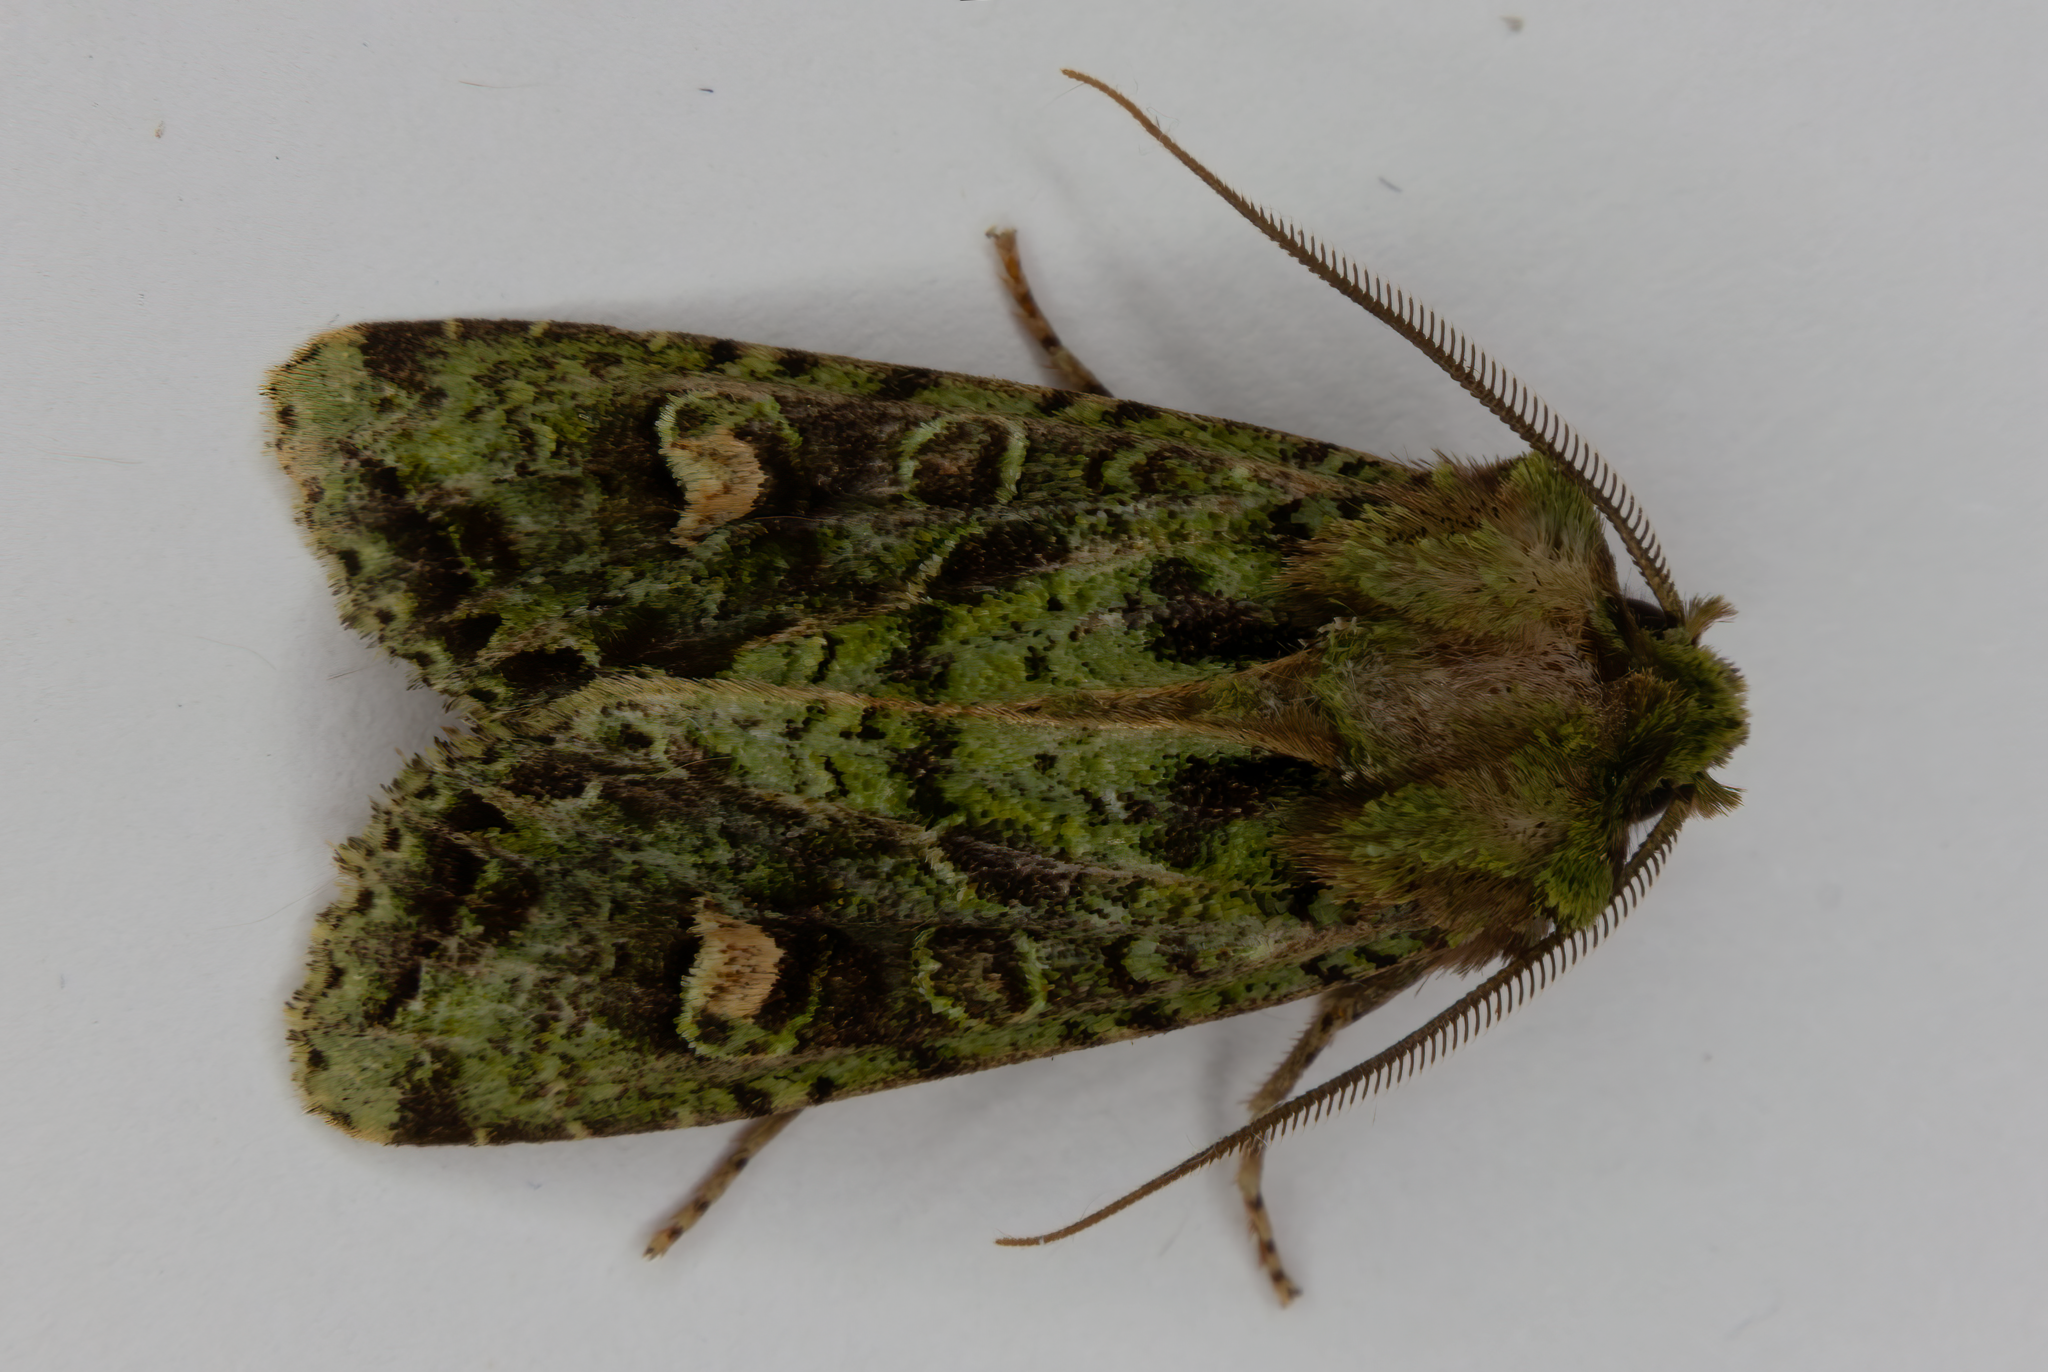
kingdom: Animalia
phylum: Arthropoda
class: Insecta
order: Lepidoptera
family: Noctuidae
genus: Ichneutica
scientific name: Ichneutica
